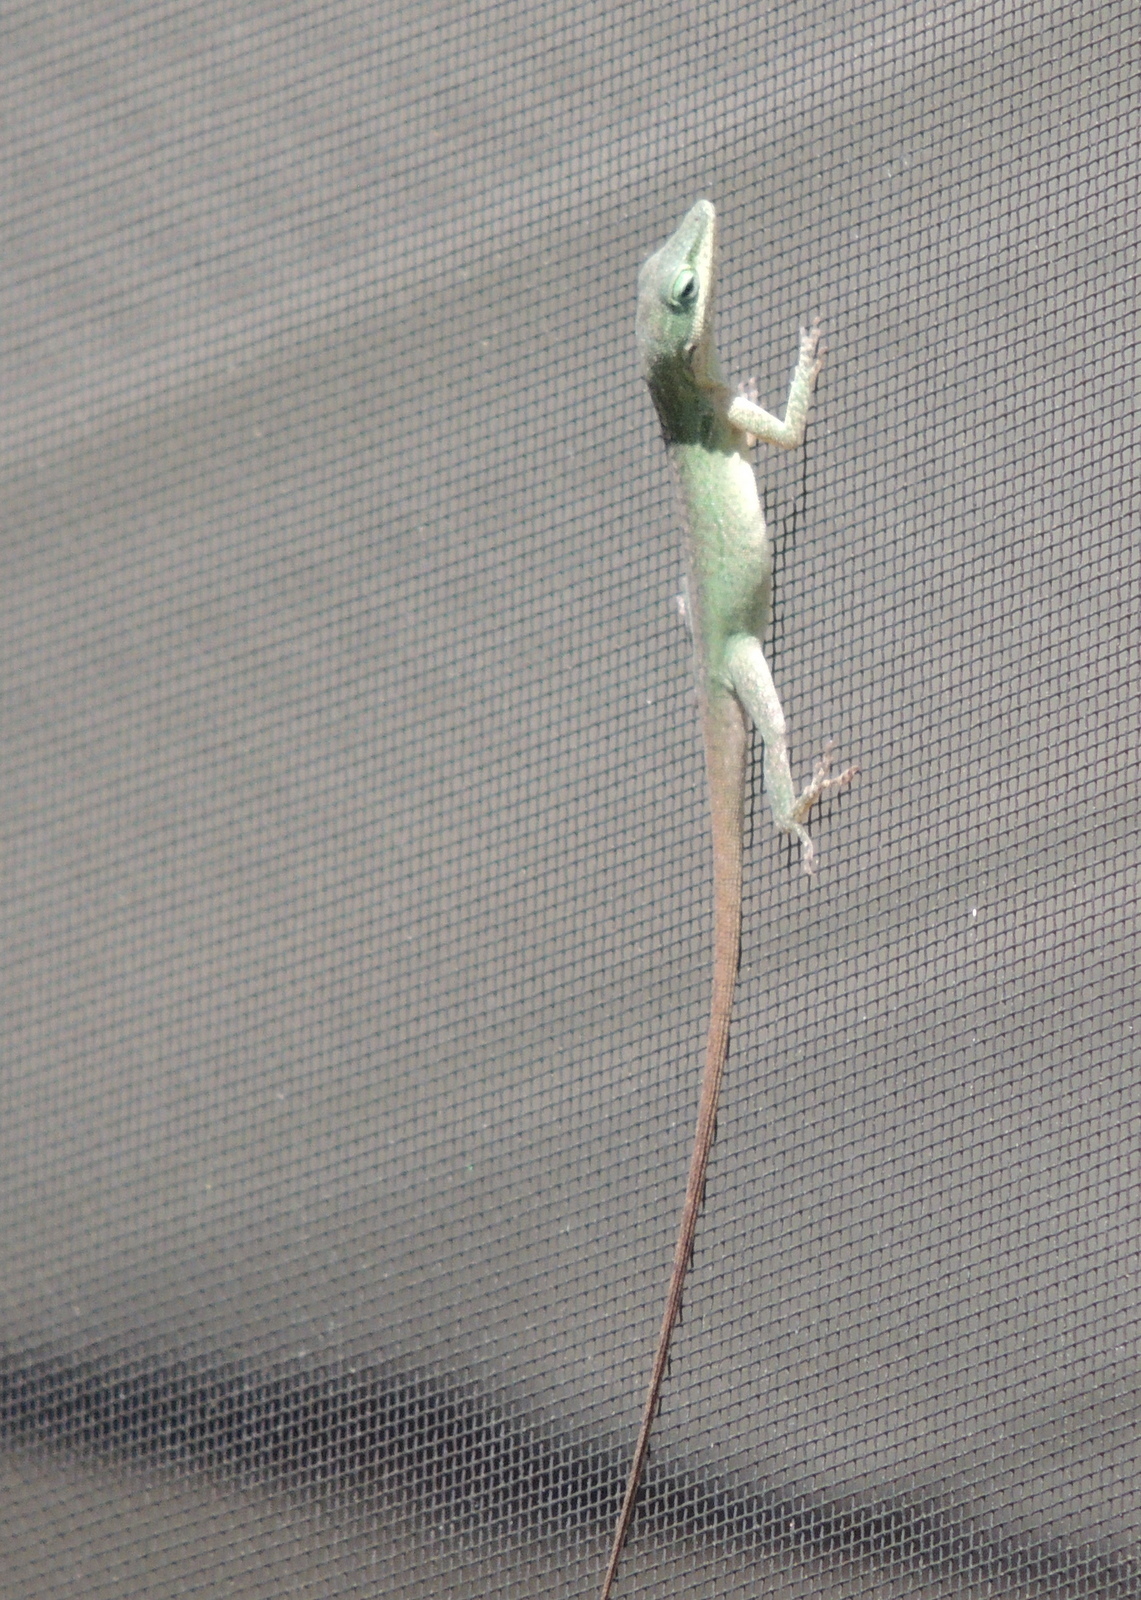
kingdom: Animalia
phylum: Chordata
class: Squamata
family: Dactyloidae
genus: Anolis
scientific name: Anolis carolinensis
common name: Green anole
